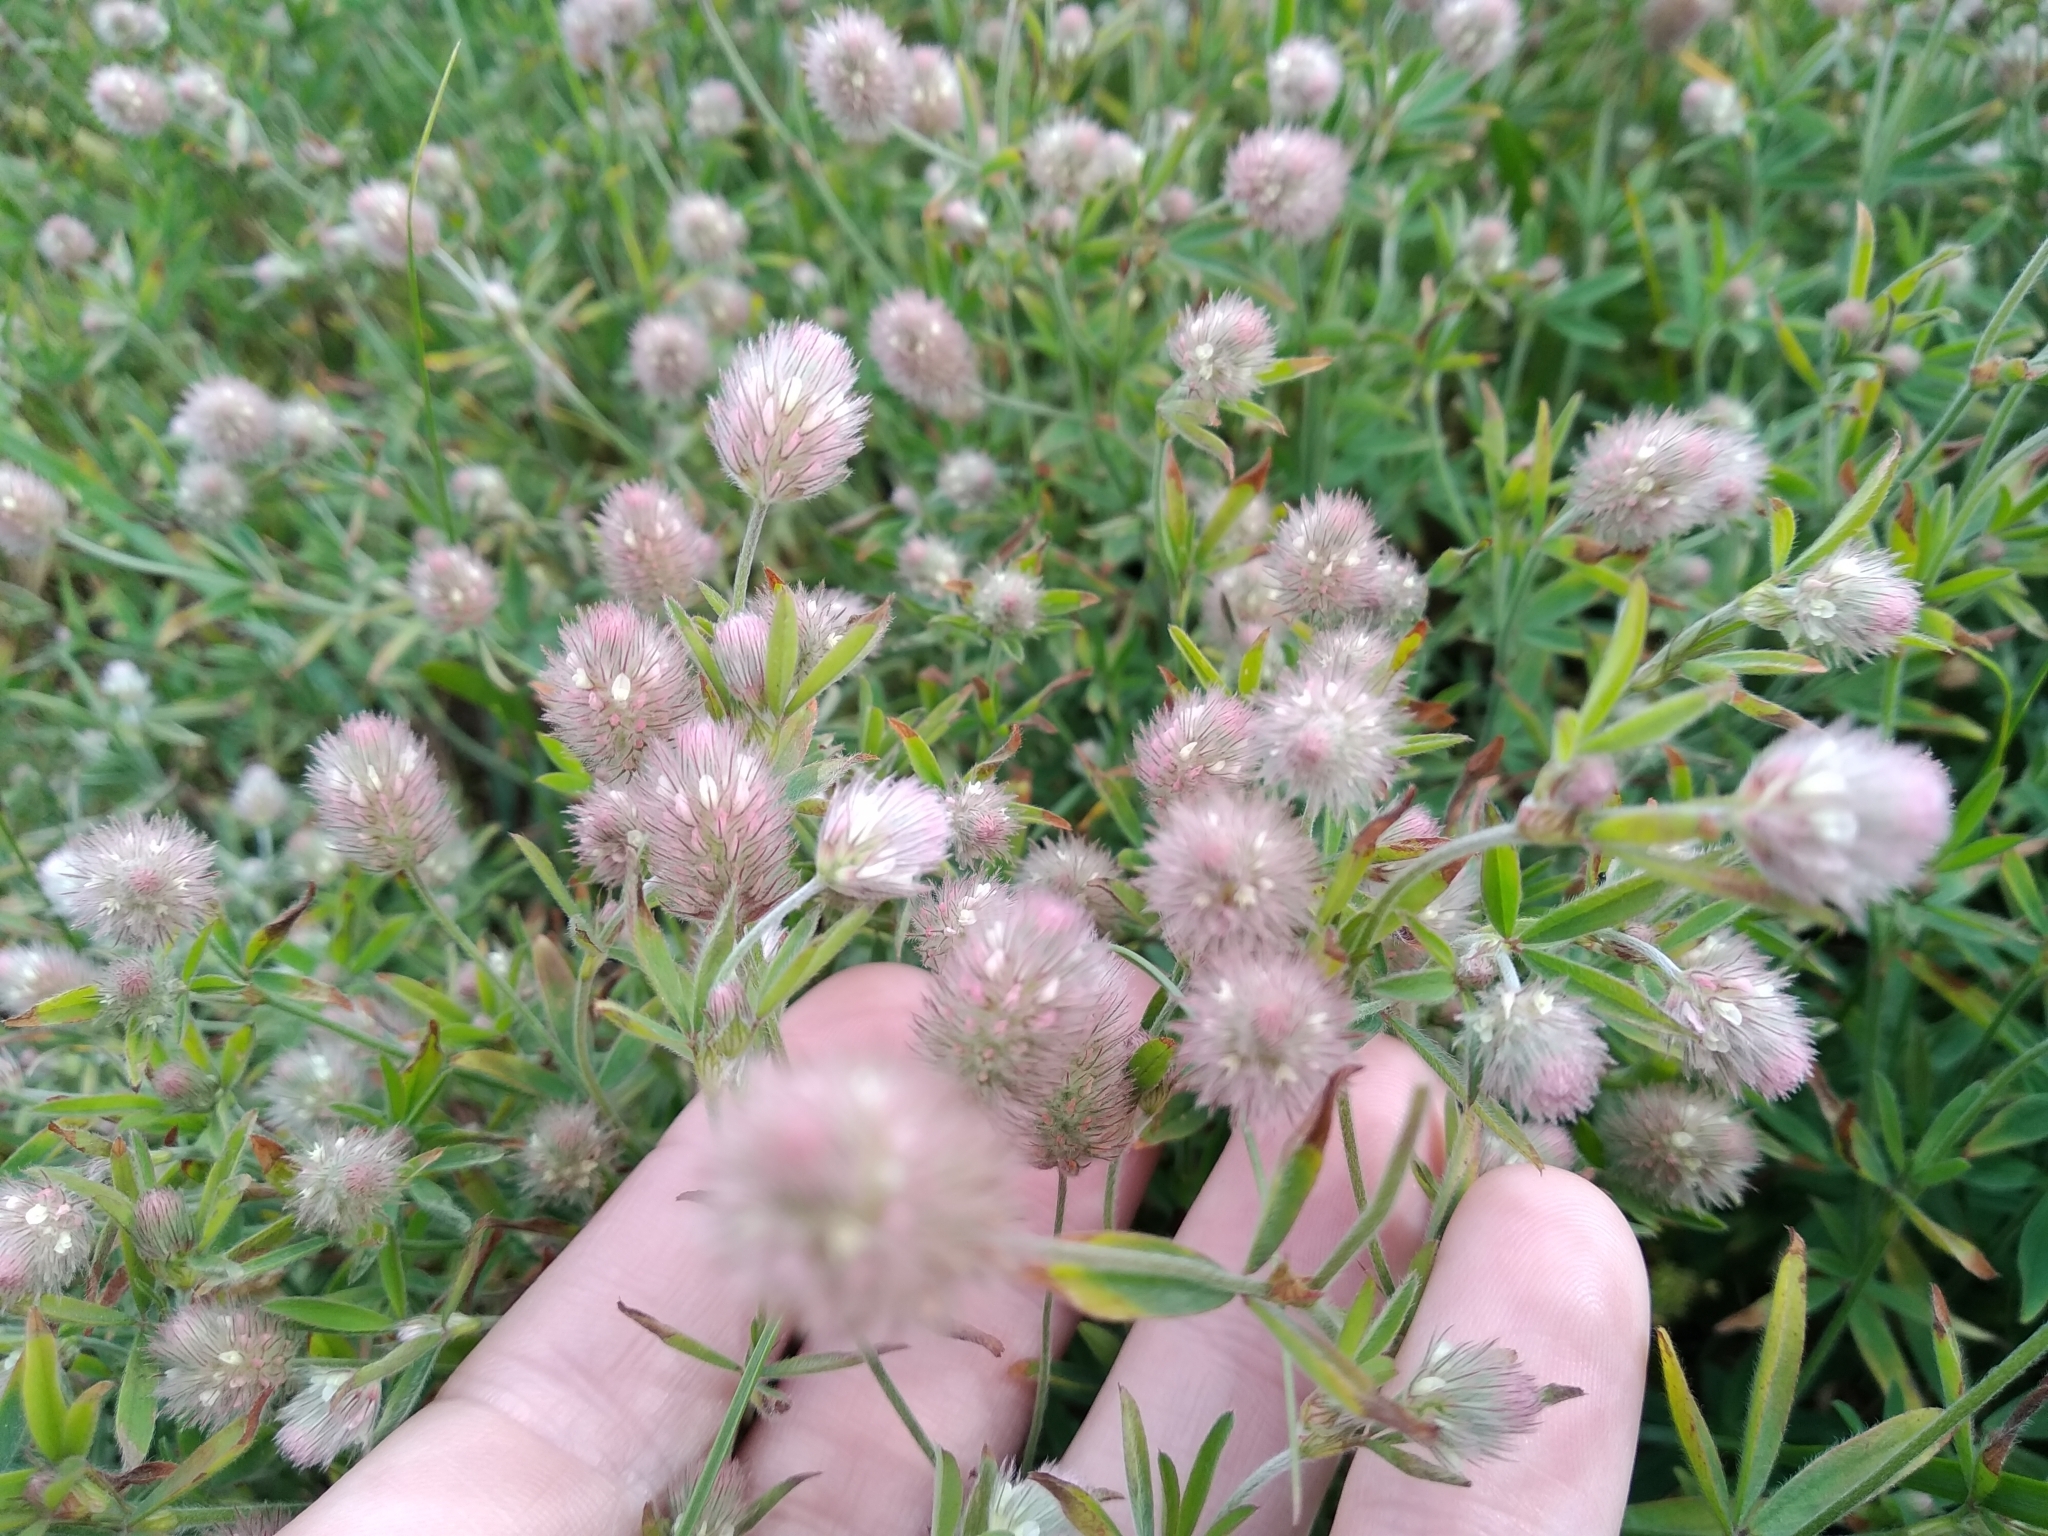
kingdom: Plantae
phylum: Tracheophyta
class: Magnoliopsida
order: Fabales
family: Fabaceae
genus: Trifolium
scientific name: Trifolium arvense
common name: Hare's-foot clover
